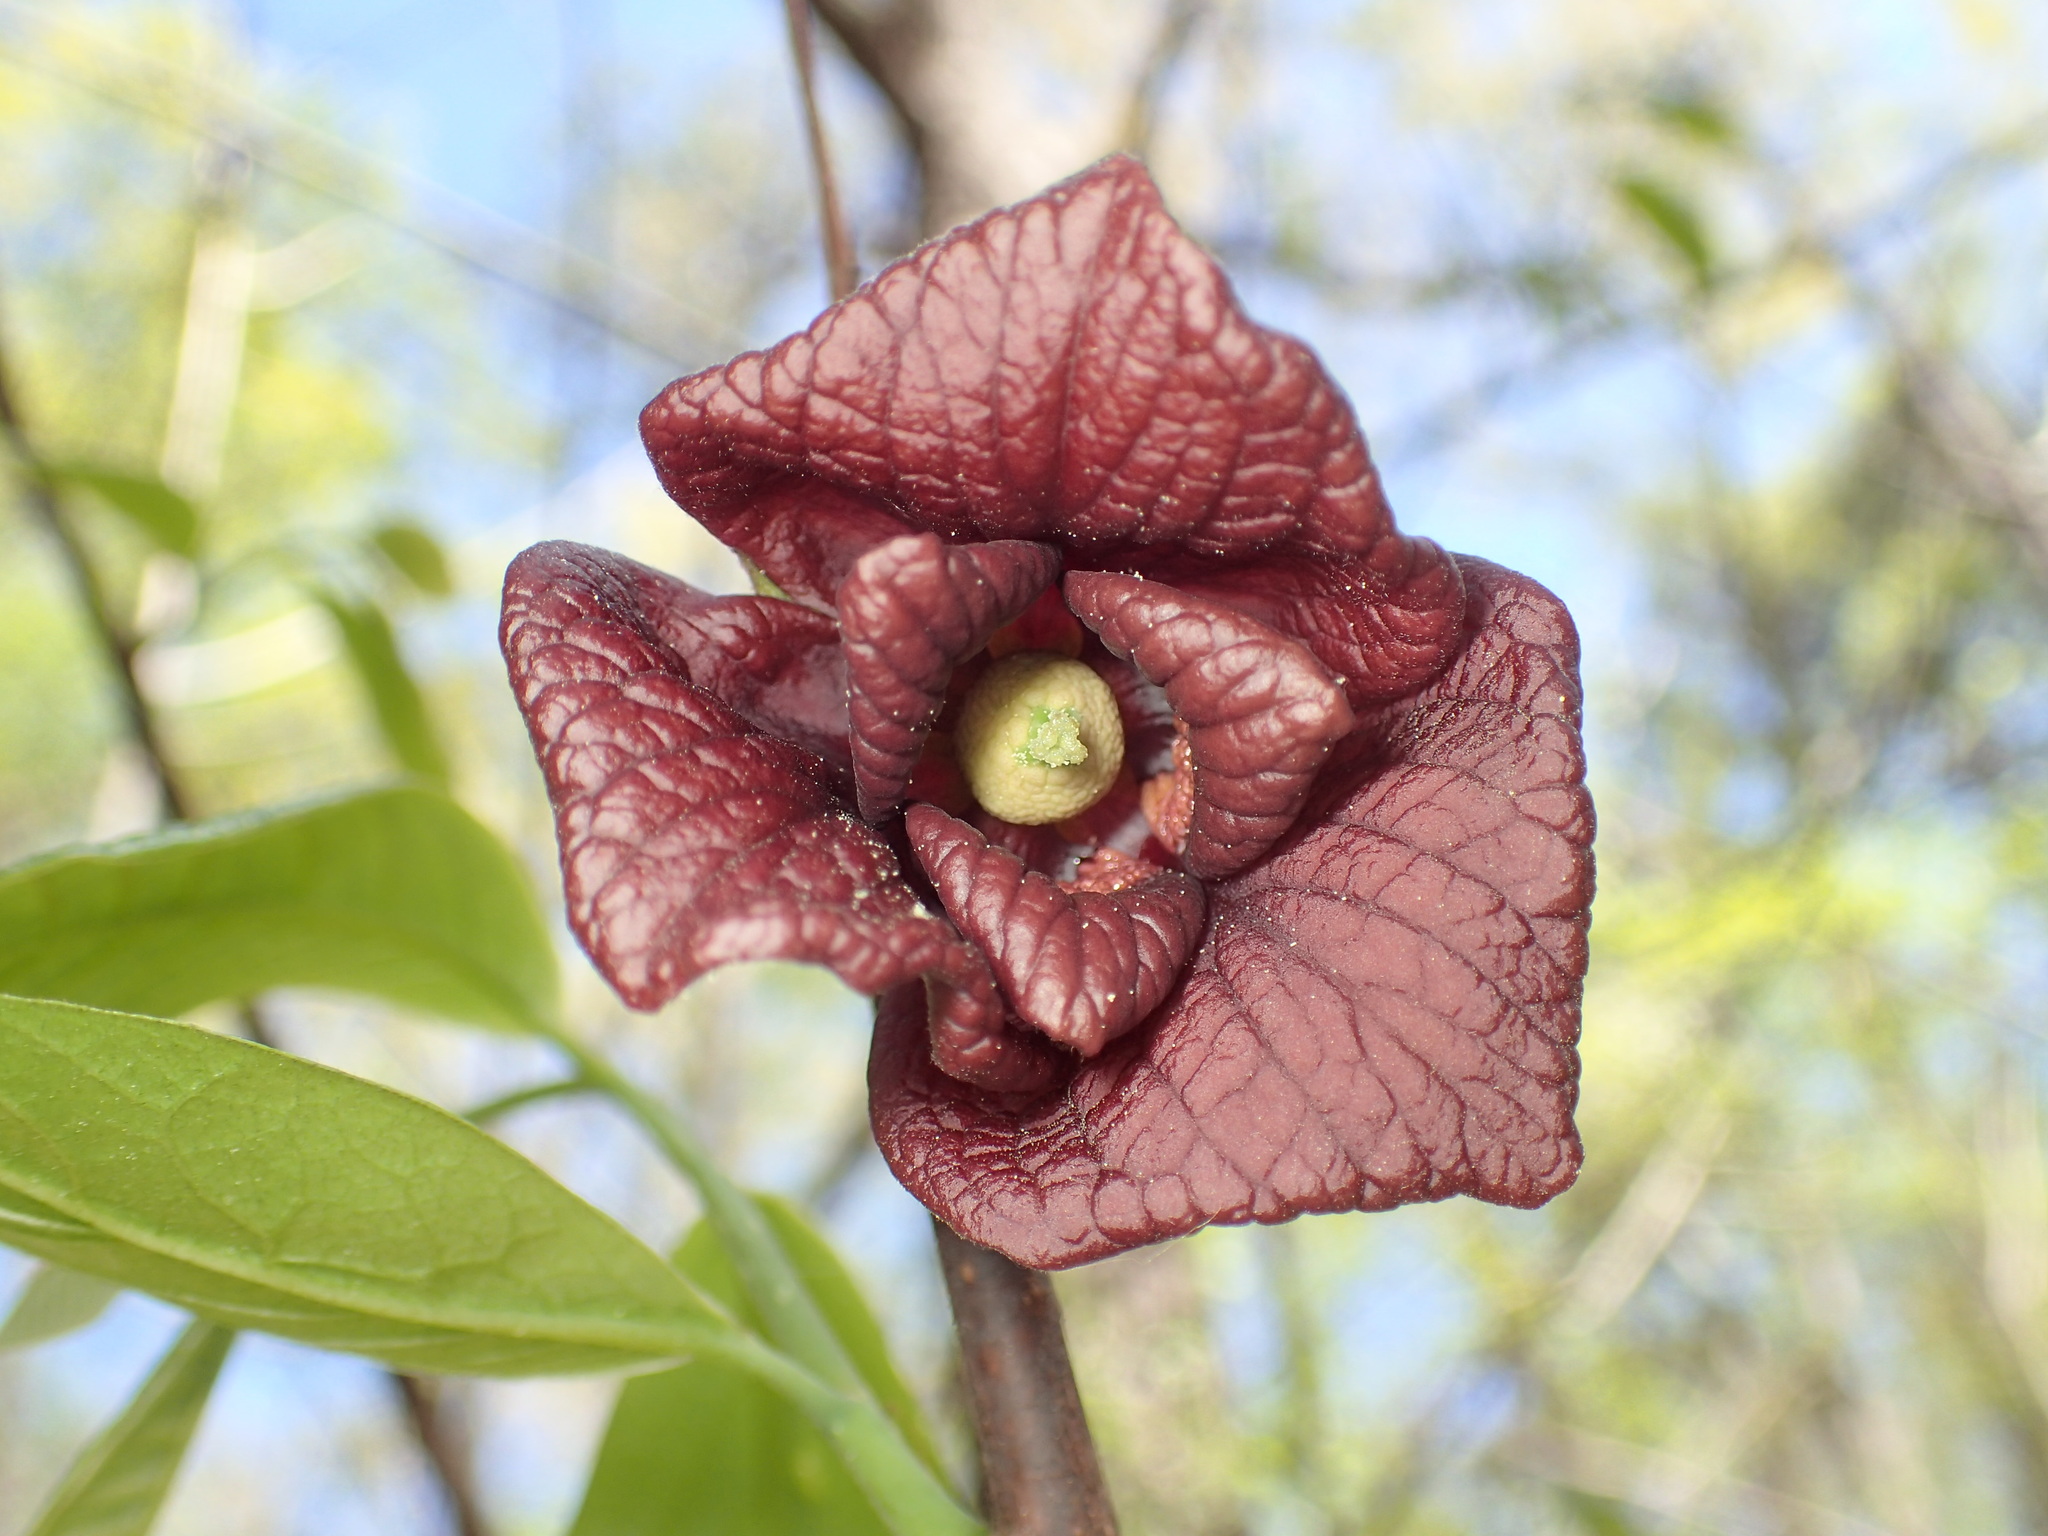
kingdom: Plantae
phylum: Tracheophyta
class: Magnoliopsida
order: Magnoliales
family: Annonaceae
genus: Asimina
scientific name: Asimina triloba
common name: Dog-banana
